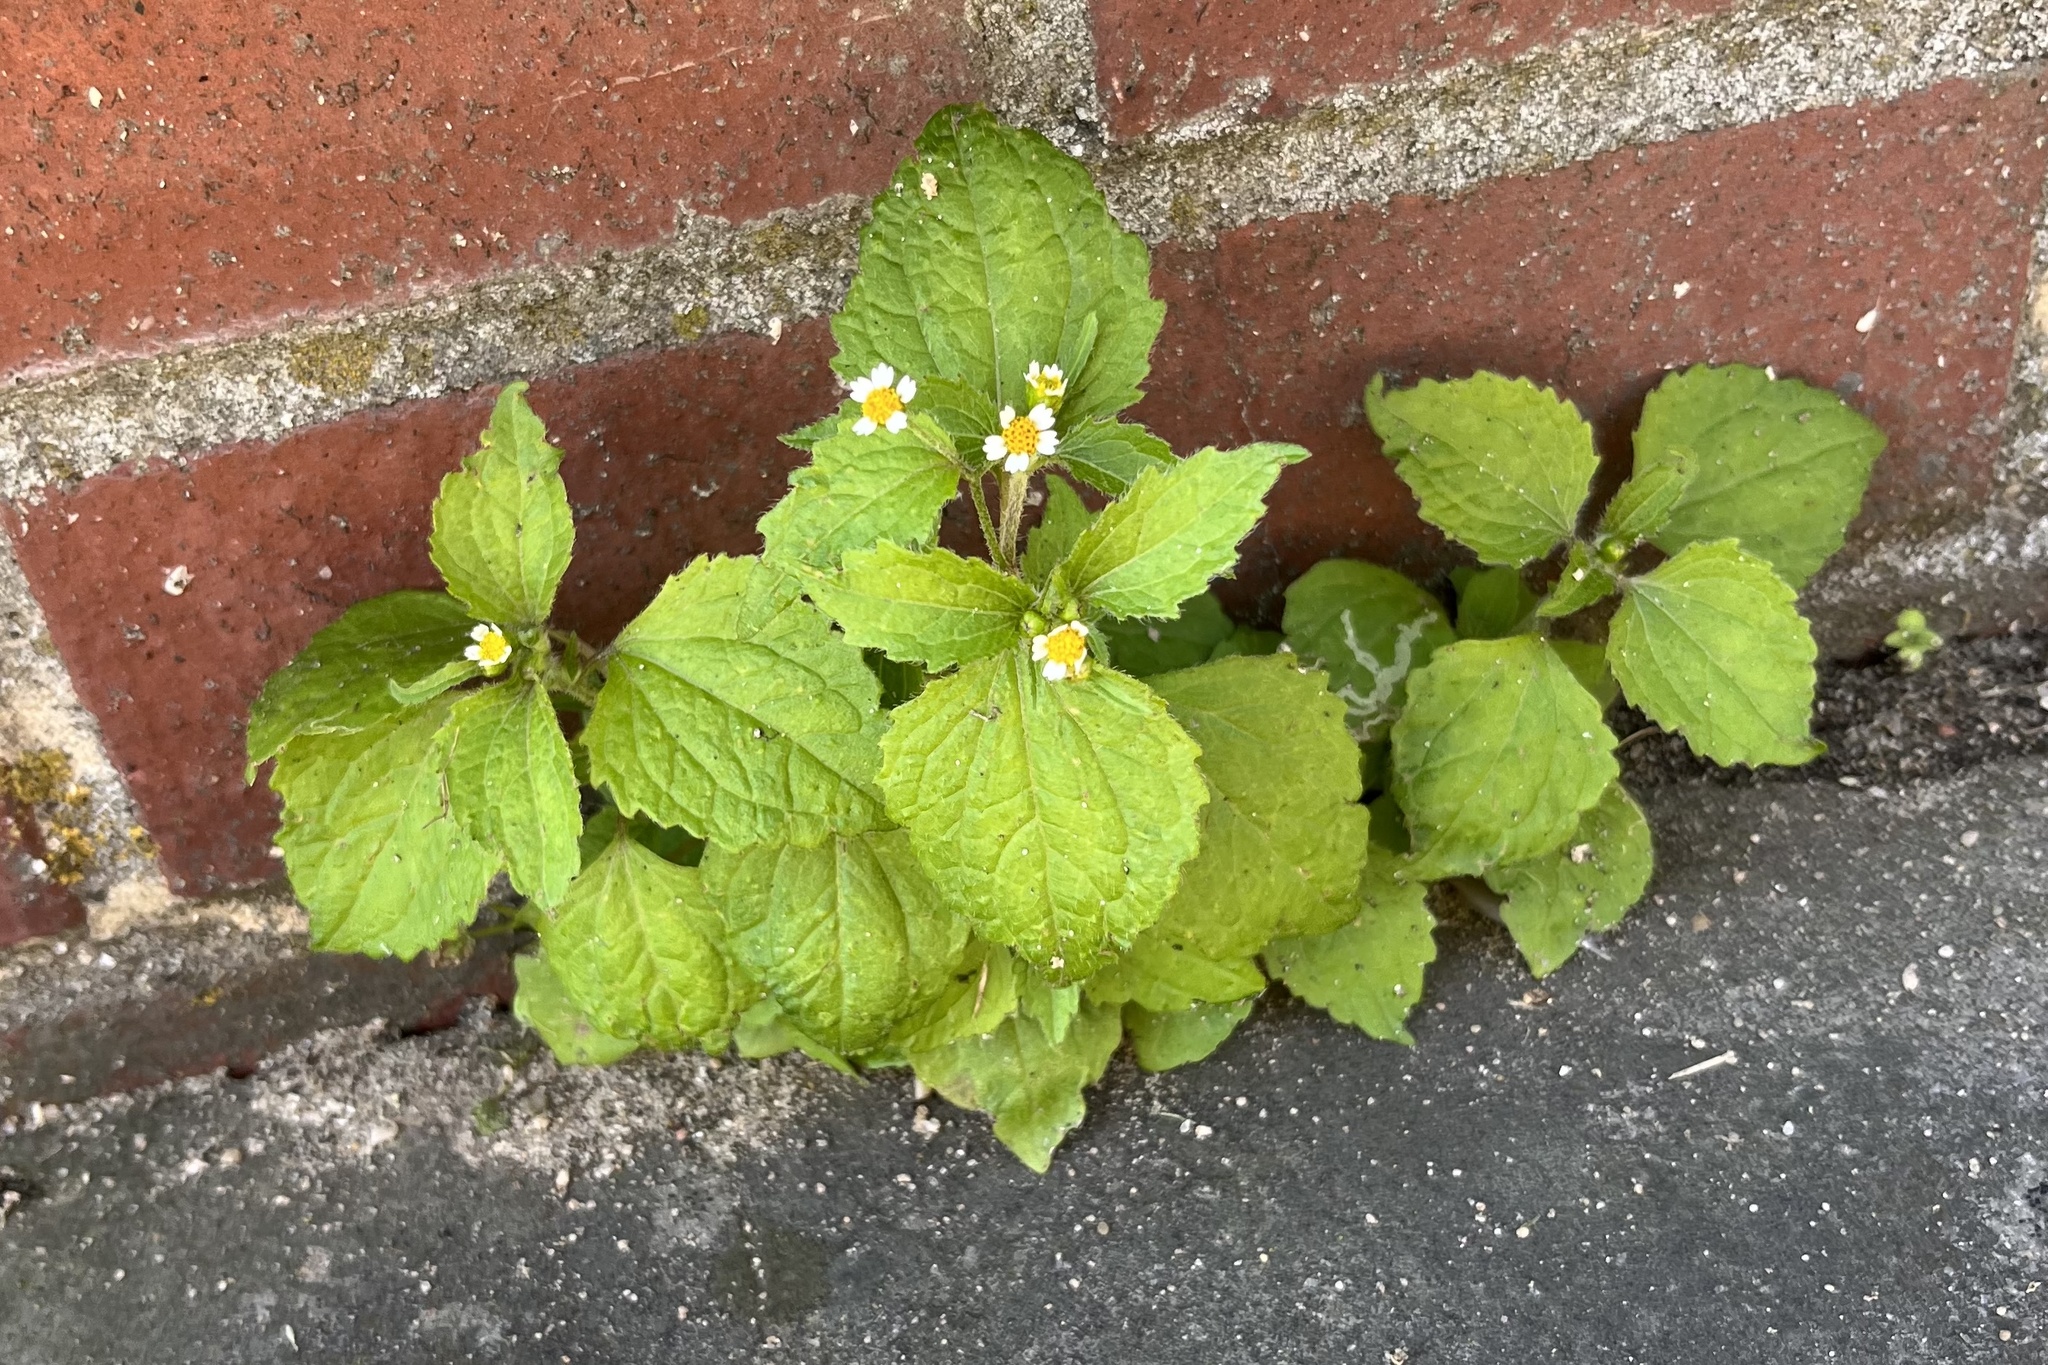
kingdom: Plantae
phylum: Tracheophyta
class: Magnoliopsida
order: Asterales
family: Asteraceae
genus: Galinsoga
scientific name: Galinsoga quadriradiata
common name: Shaggy soldier
